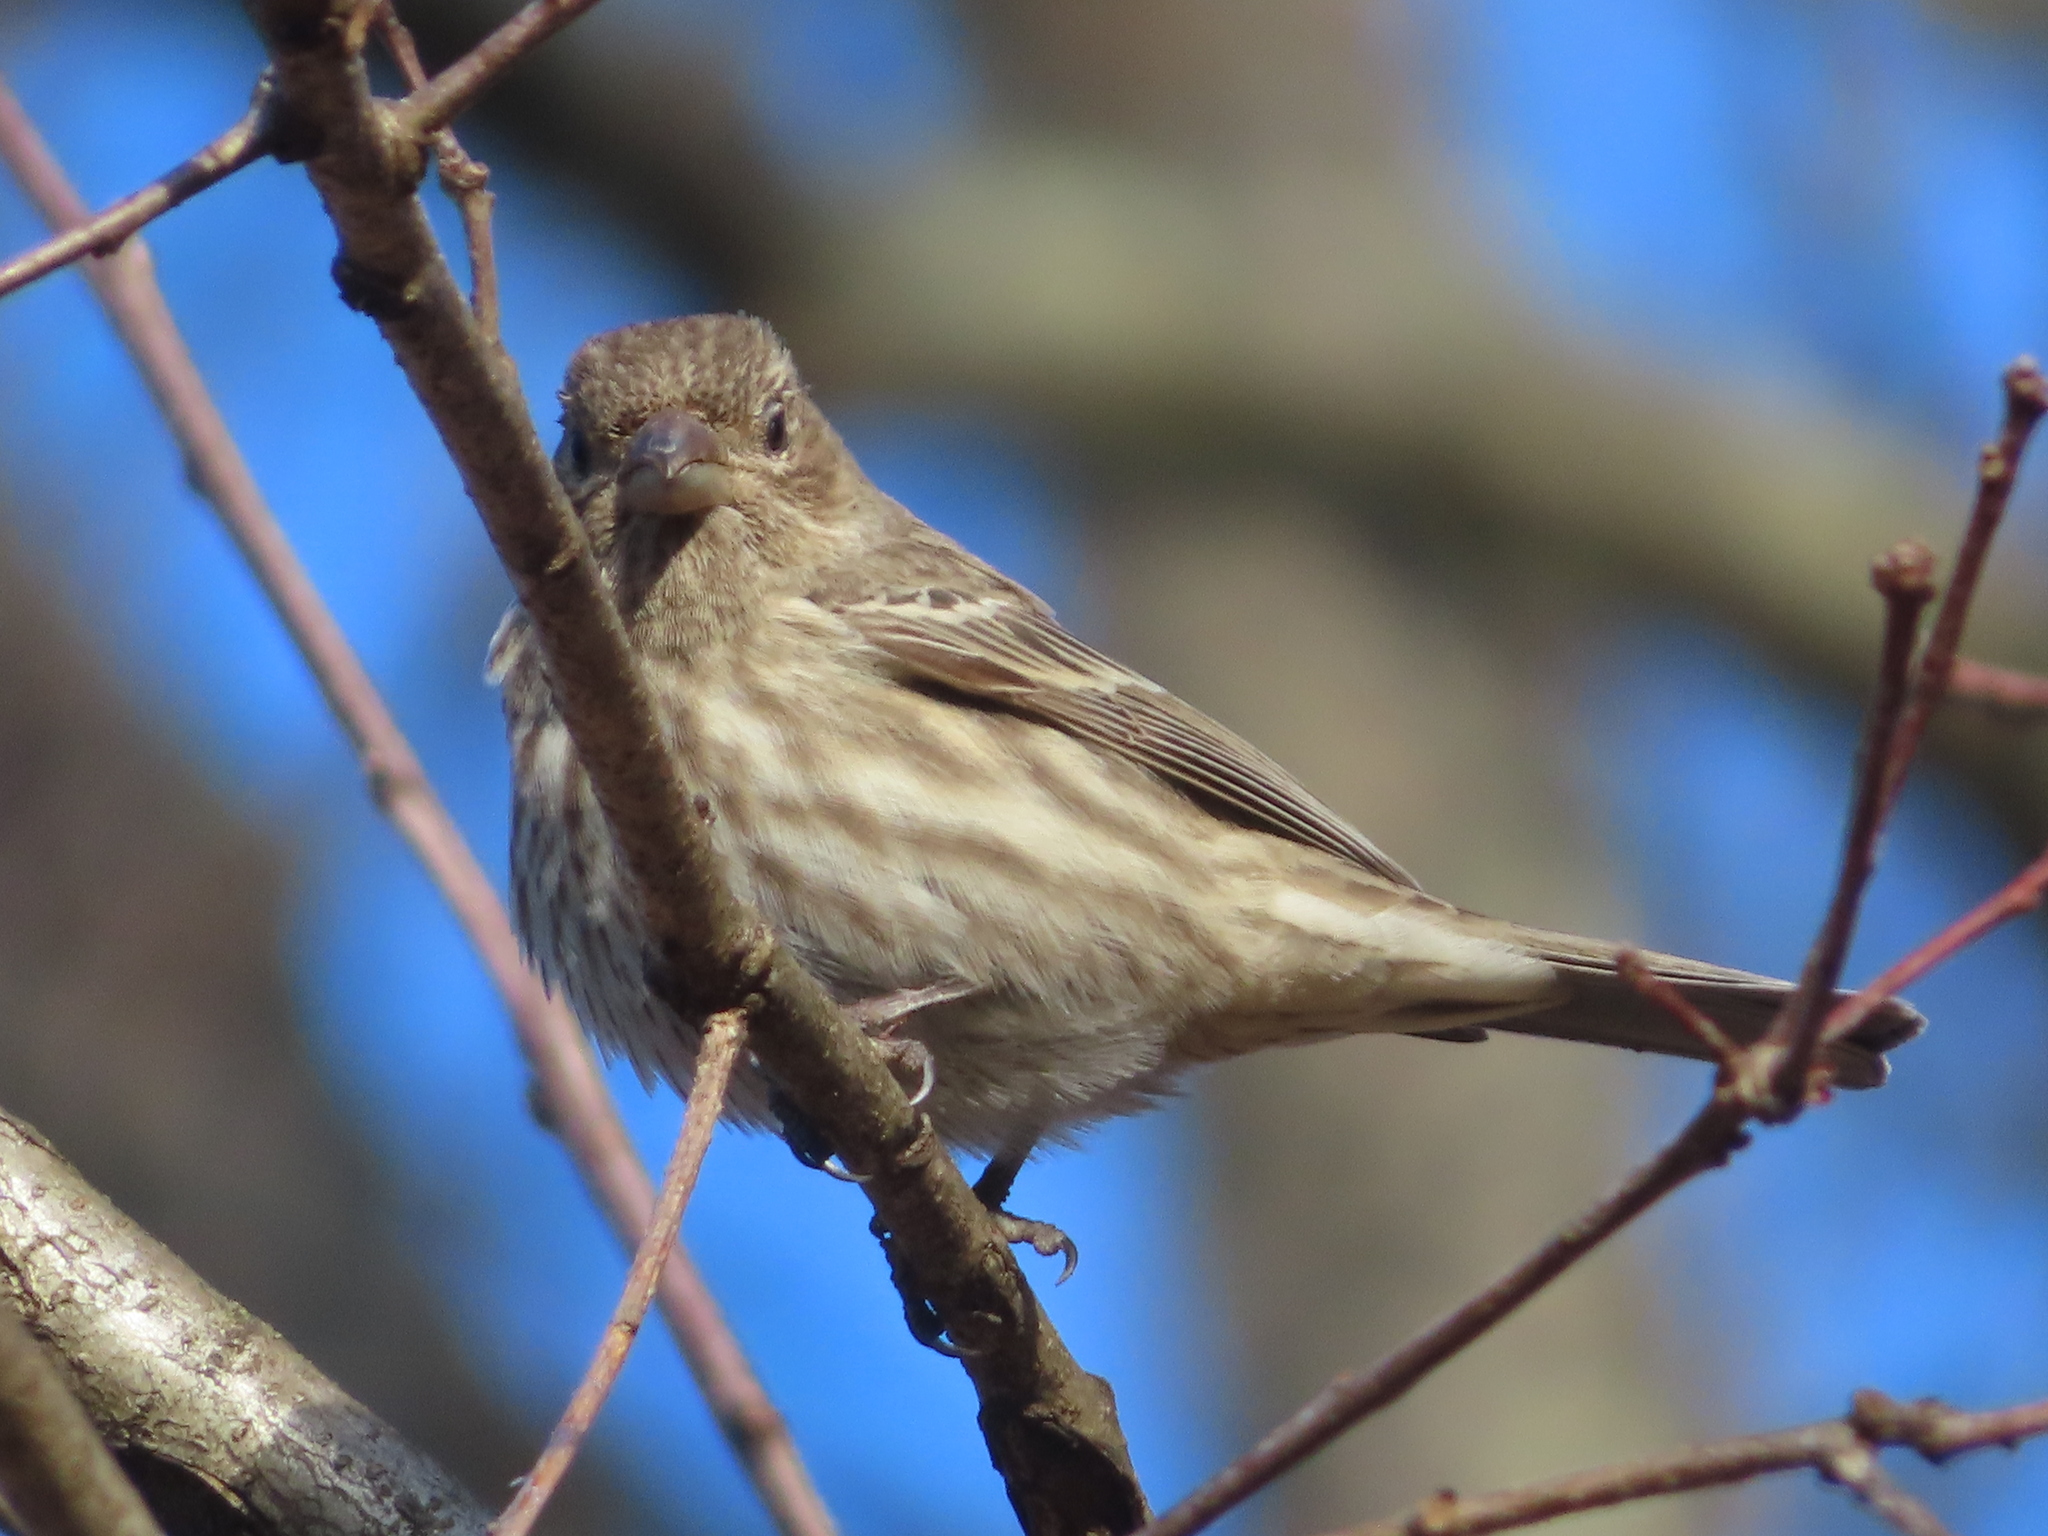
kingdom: Animalia
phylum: Chordata
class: Aves
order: Passeriformes
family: Fringillidae
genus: Haemorhous
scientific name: Haemorhous mexicanus
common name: House finch
